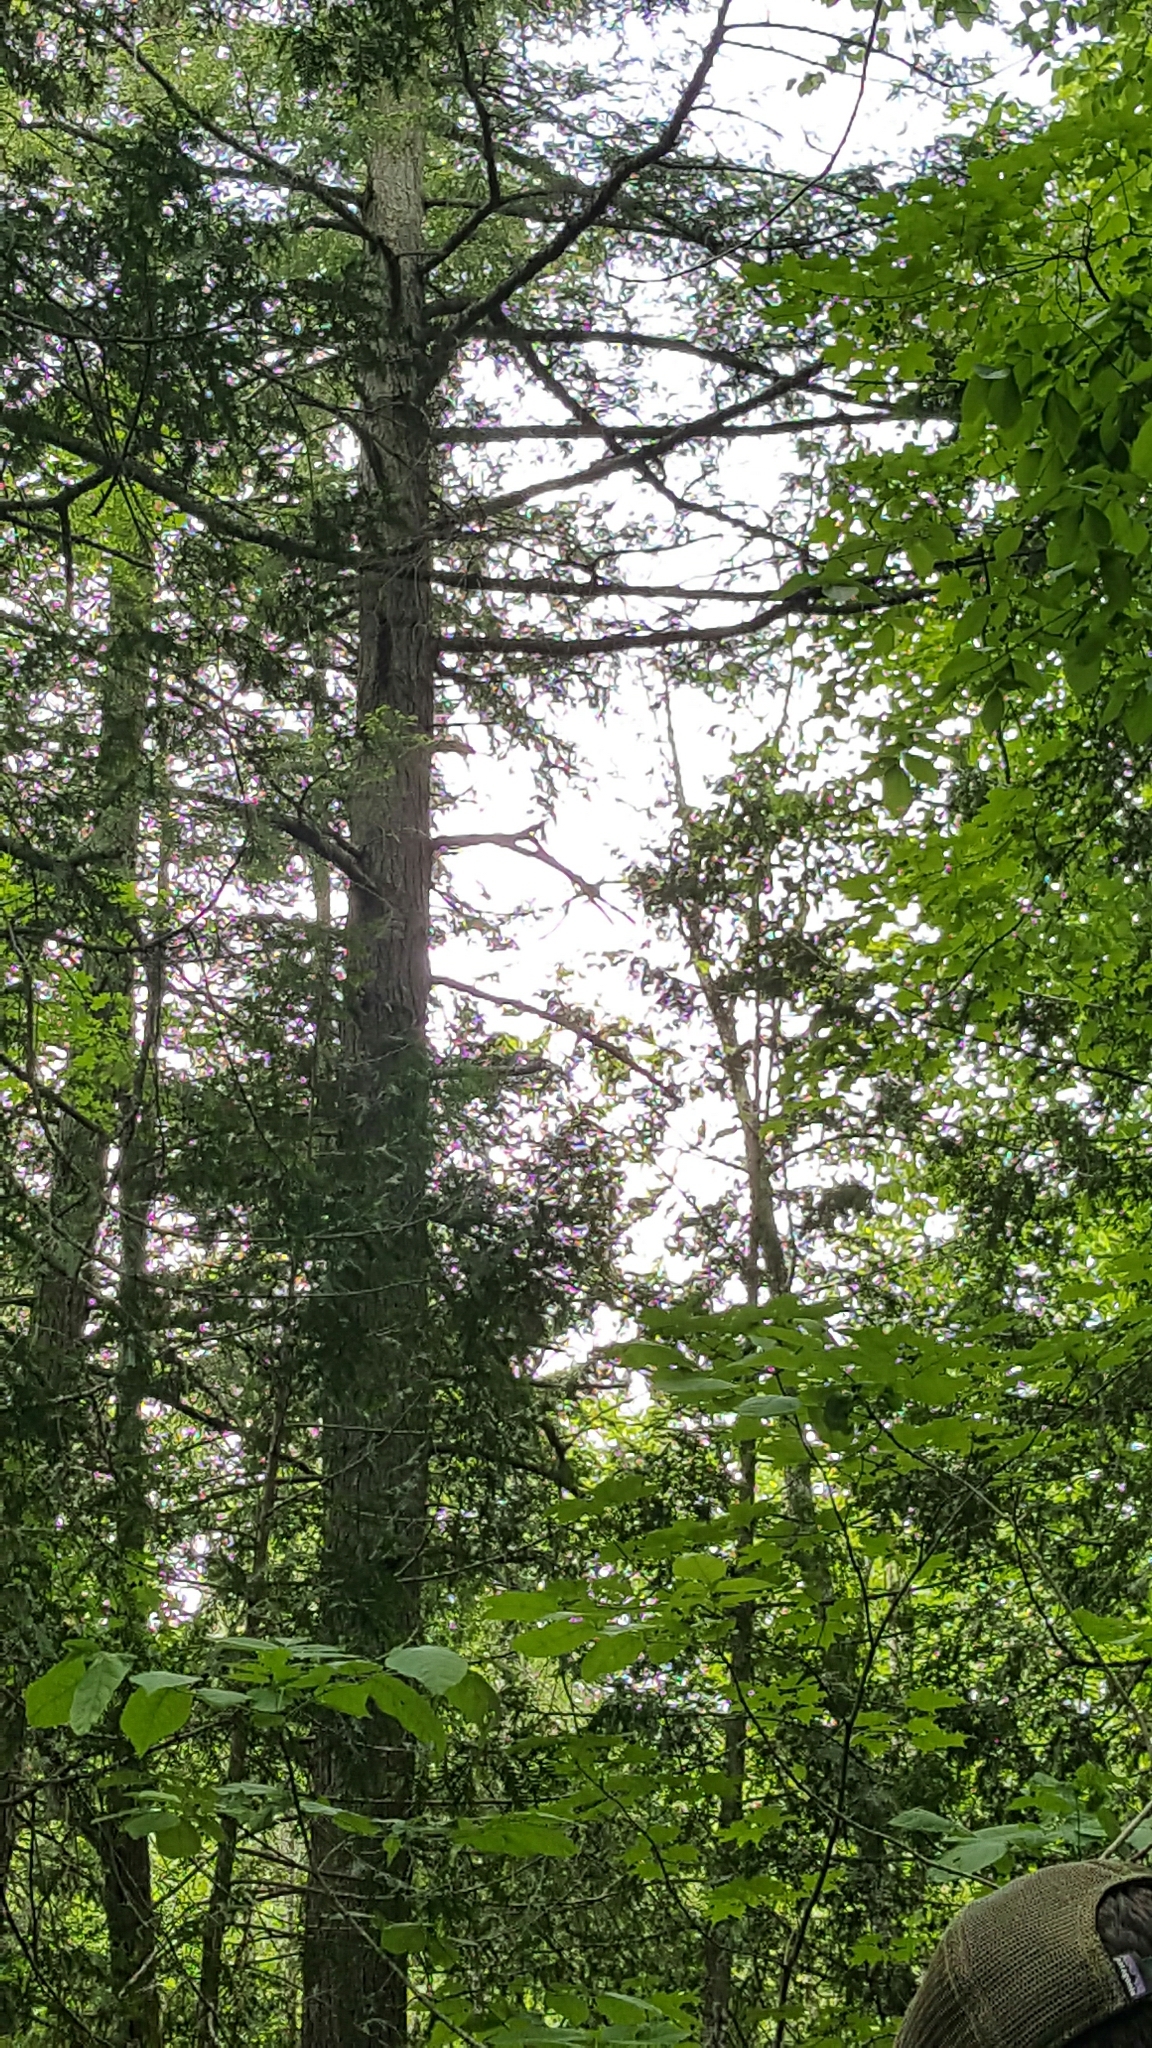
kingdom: Plantae
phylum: Tracheophyta
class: Pinopsida
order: Pinales
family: Pinaceae
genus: Tsuga
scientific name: Tsuga canadensis
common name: Eastern hemlock
